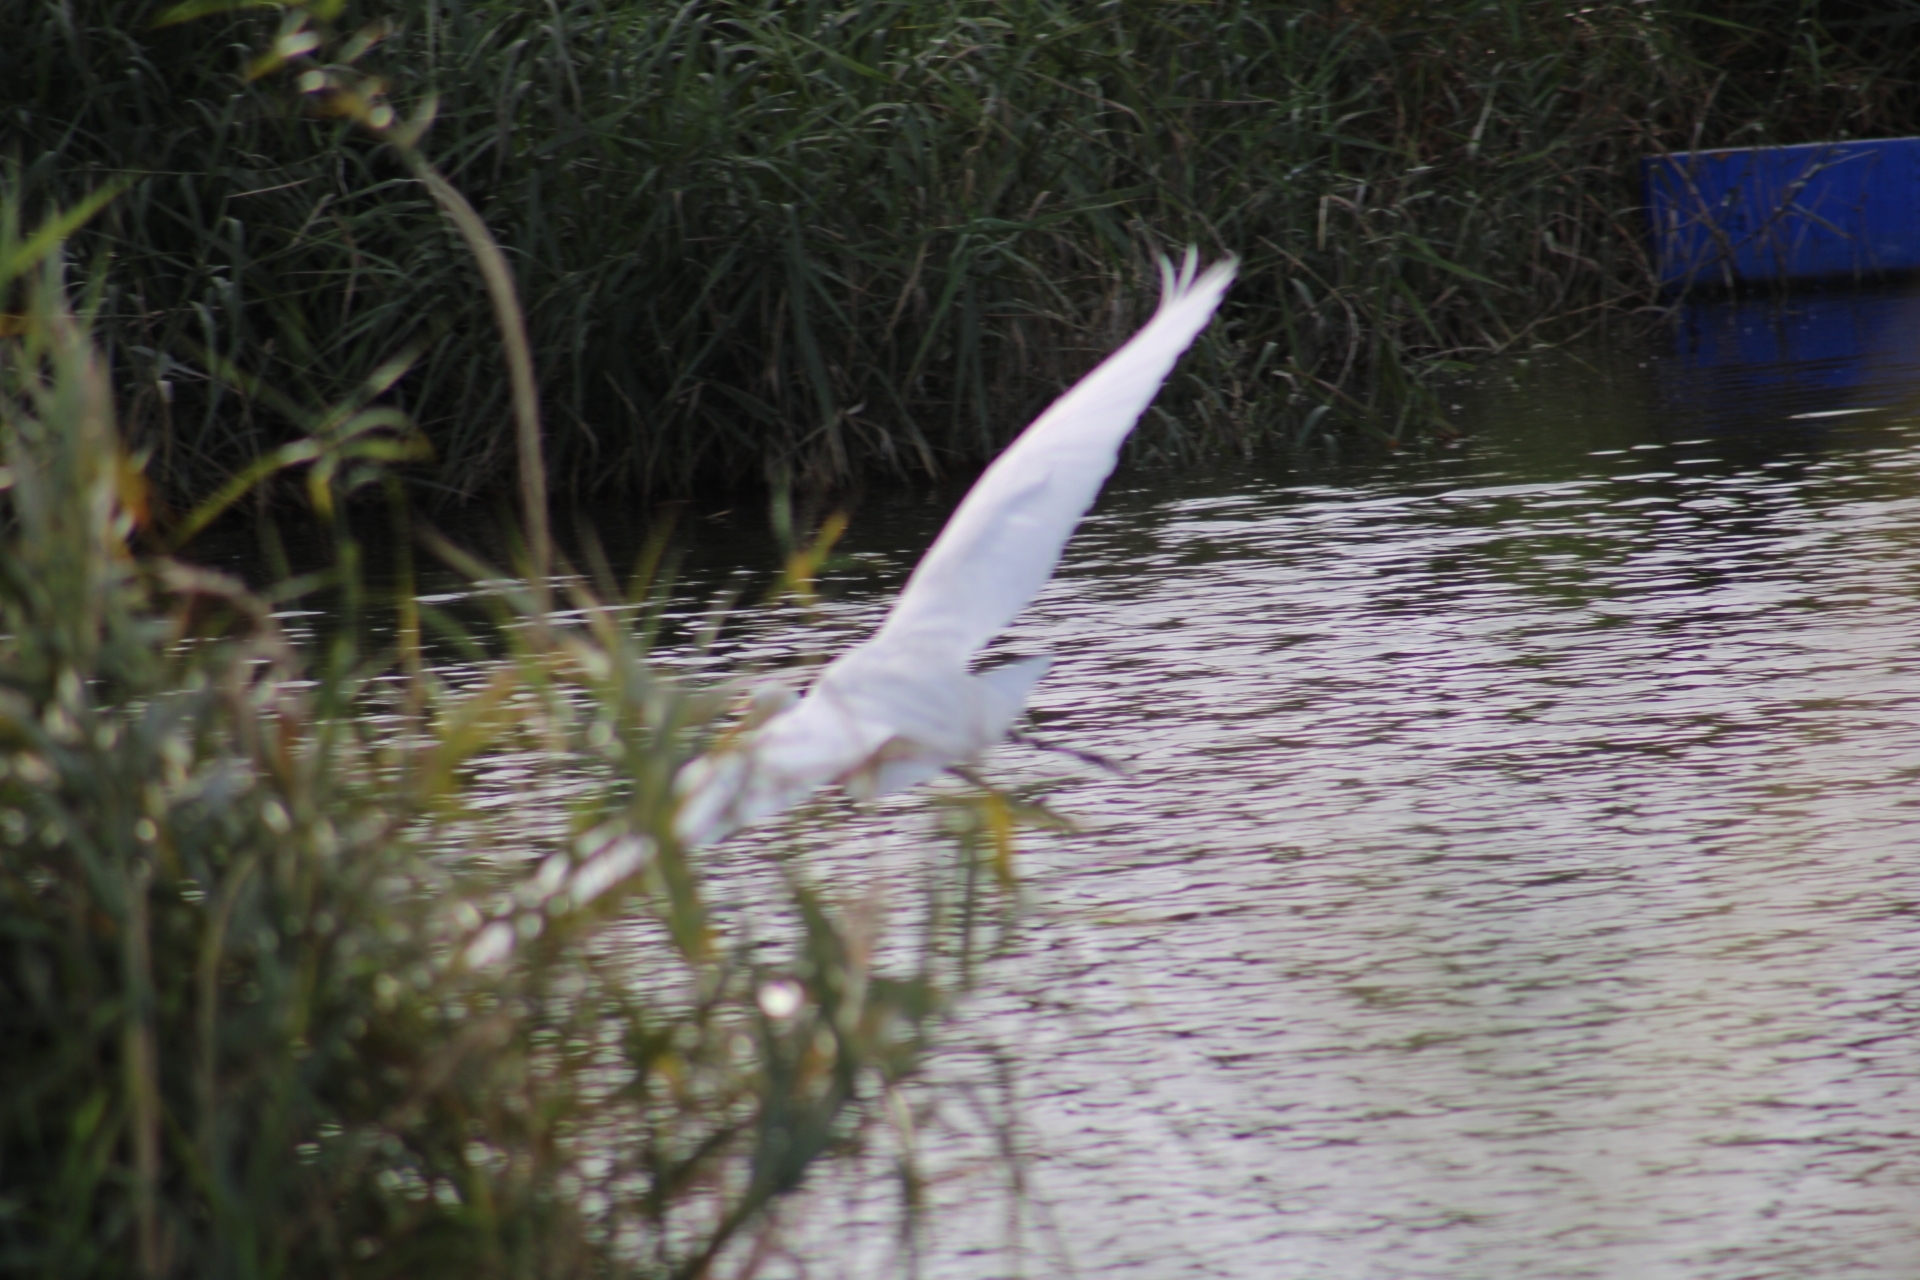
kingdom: Animalia
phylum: Chordata
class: Aves
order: Pelecaniformes
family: Ardeidae
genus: Ardea
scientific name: Ardea alba
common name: Great egret
